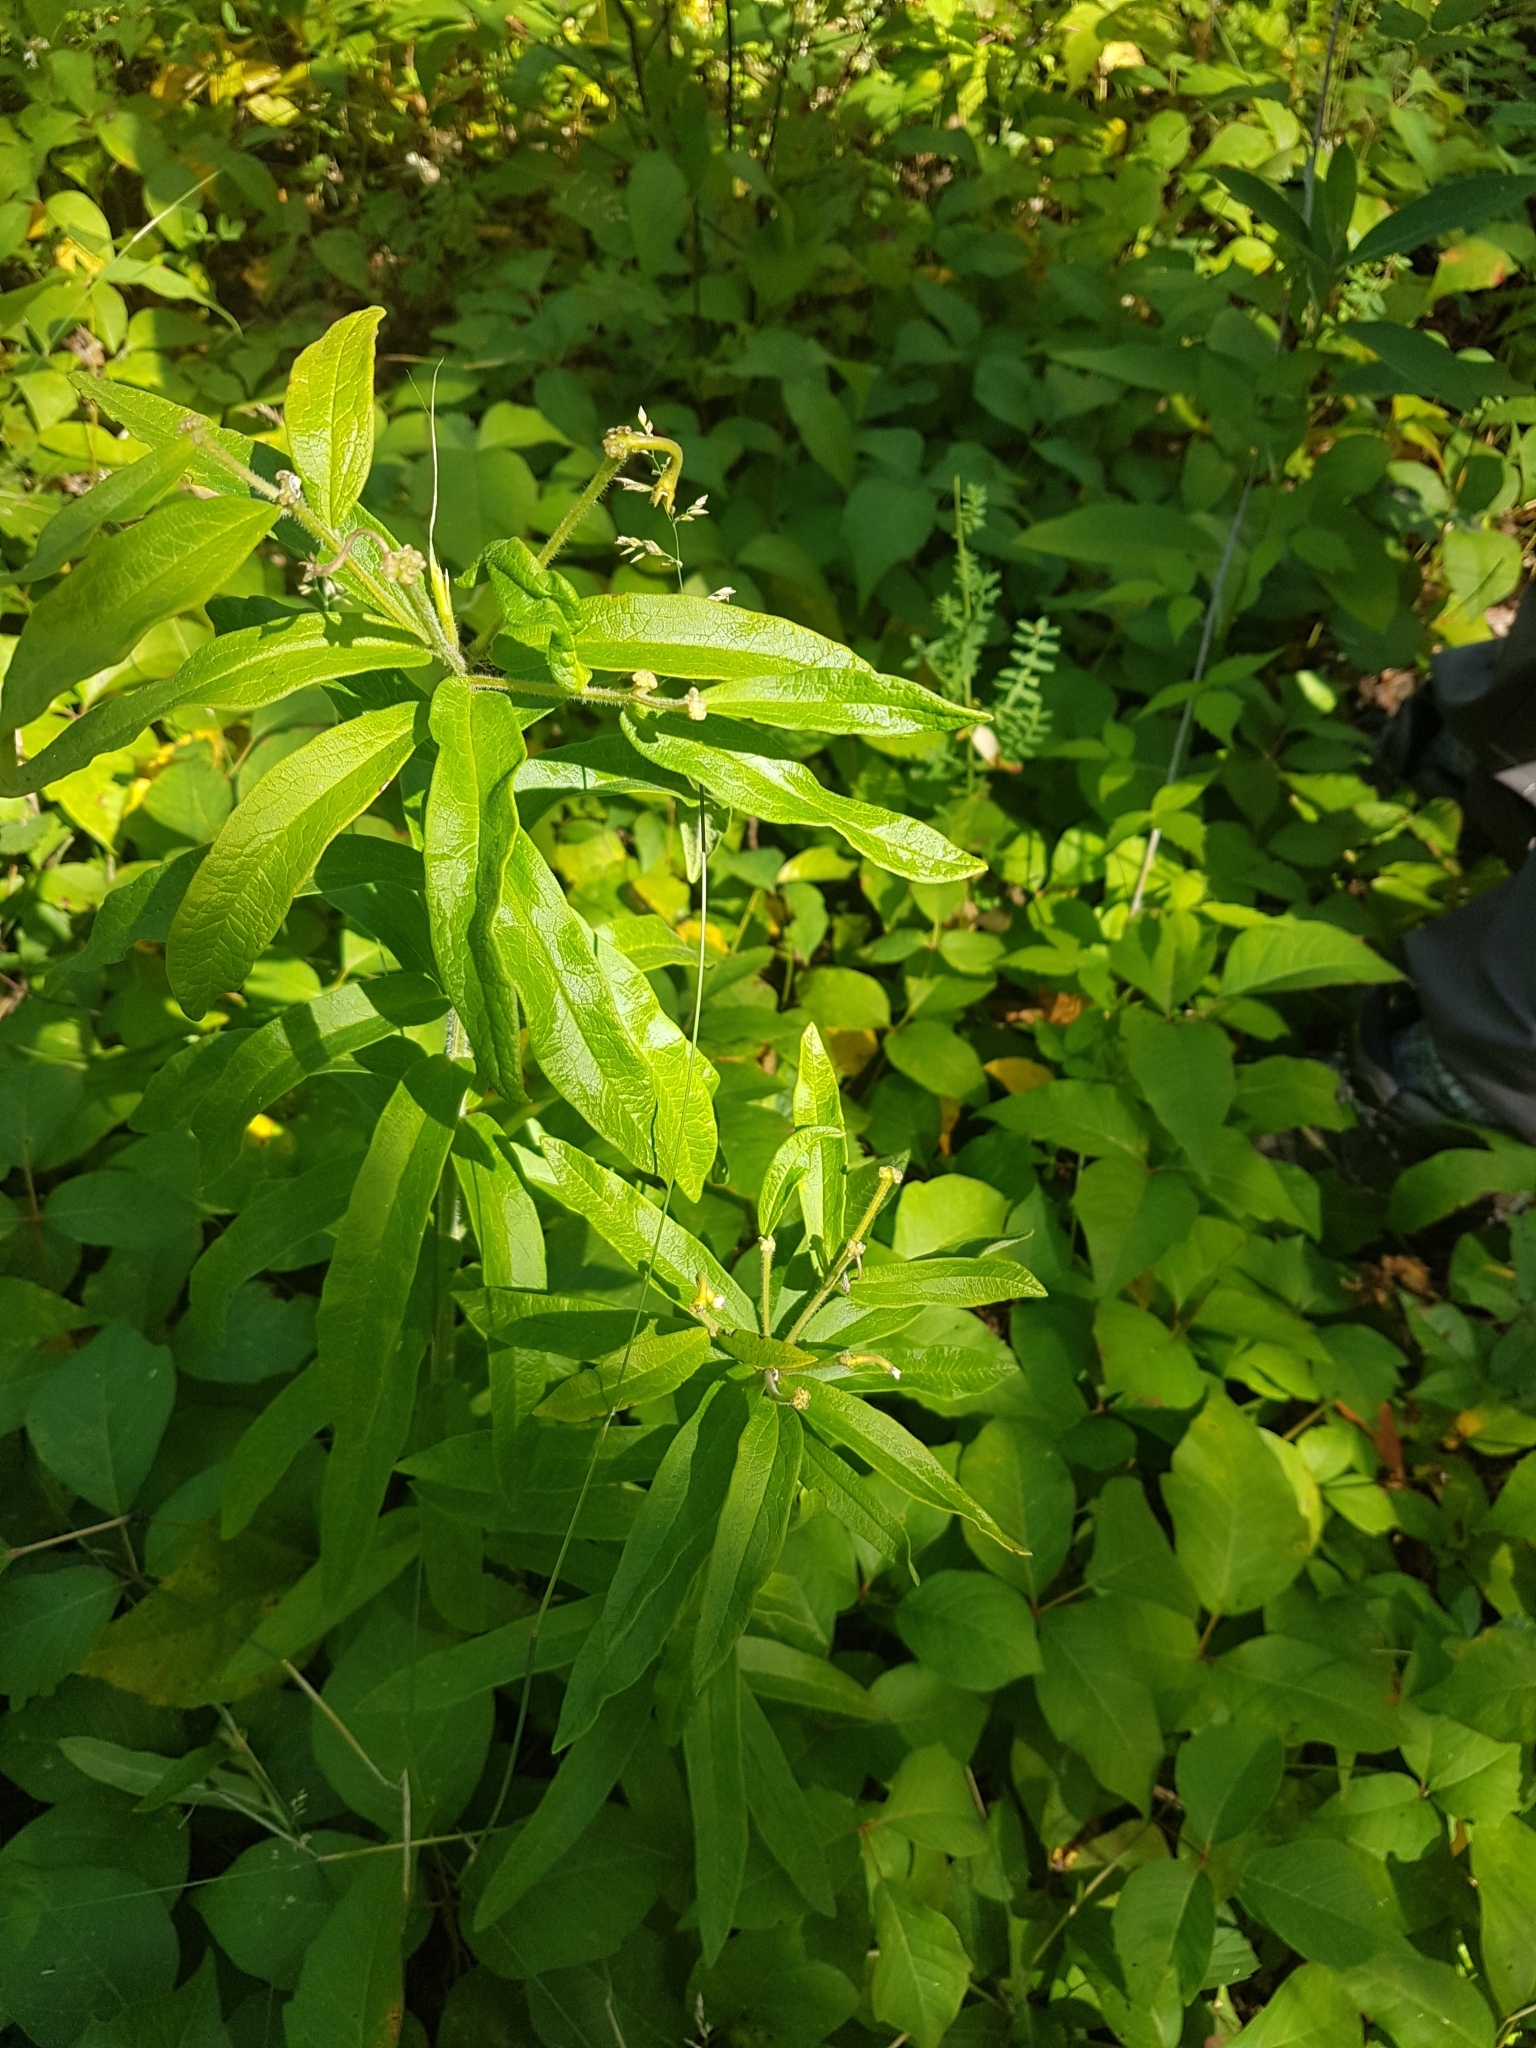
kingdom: Plantae
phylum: Tracheophyta
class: Magnoliopsida
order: Gentianales
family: Apocynaceae
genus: Asclepias
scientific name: Asclepias tuberosa
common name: Butterfly milkweed
